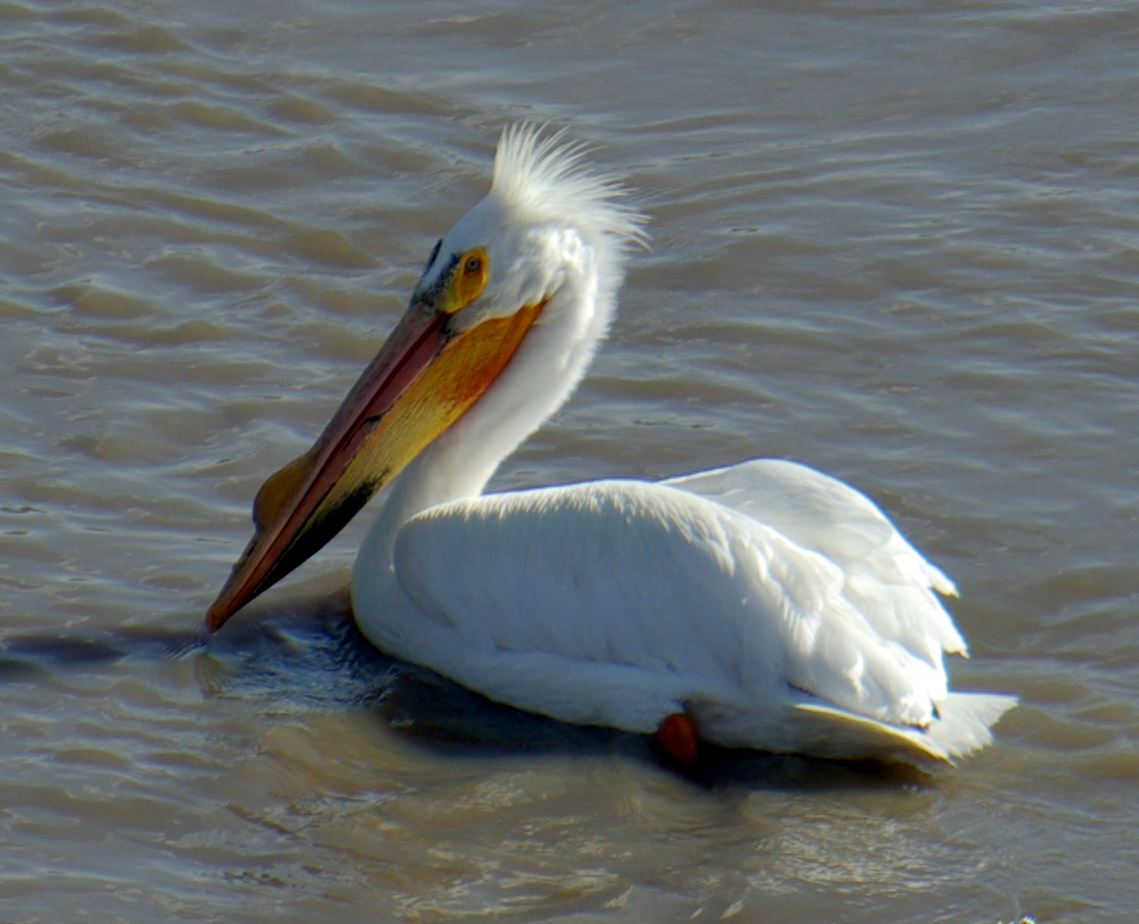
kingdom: Animalia
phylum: Chordata
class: Aves
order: Pelecaniformes
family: Pelecanidae
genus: Pelecanus
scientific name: Pelecanus erythrorhynchos
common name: American white pelican
